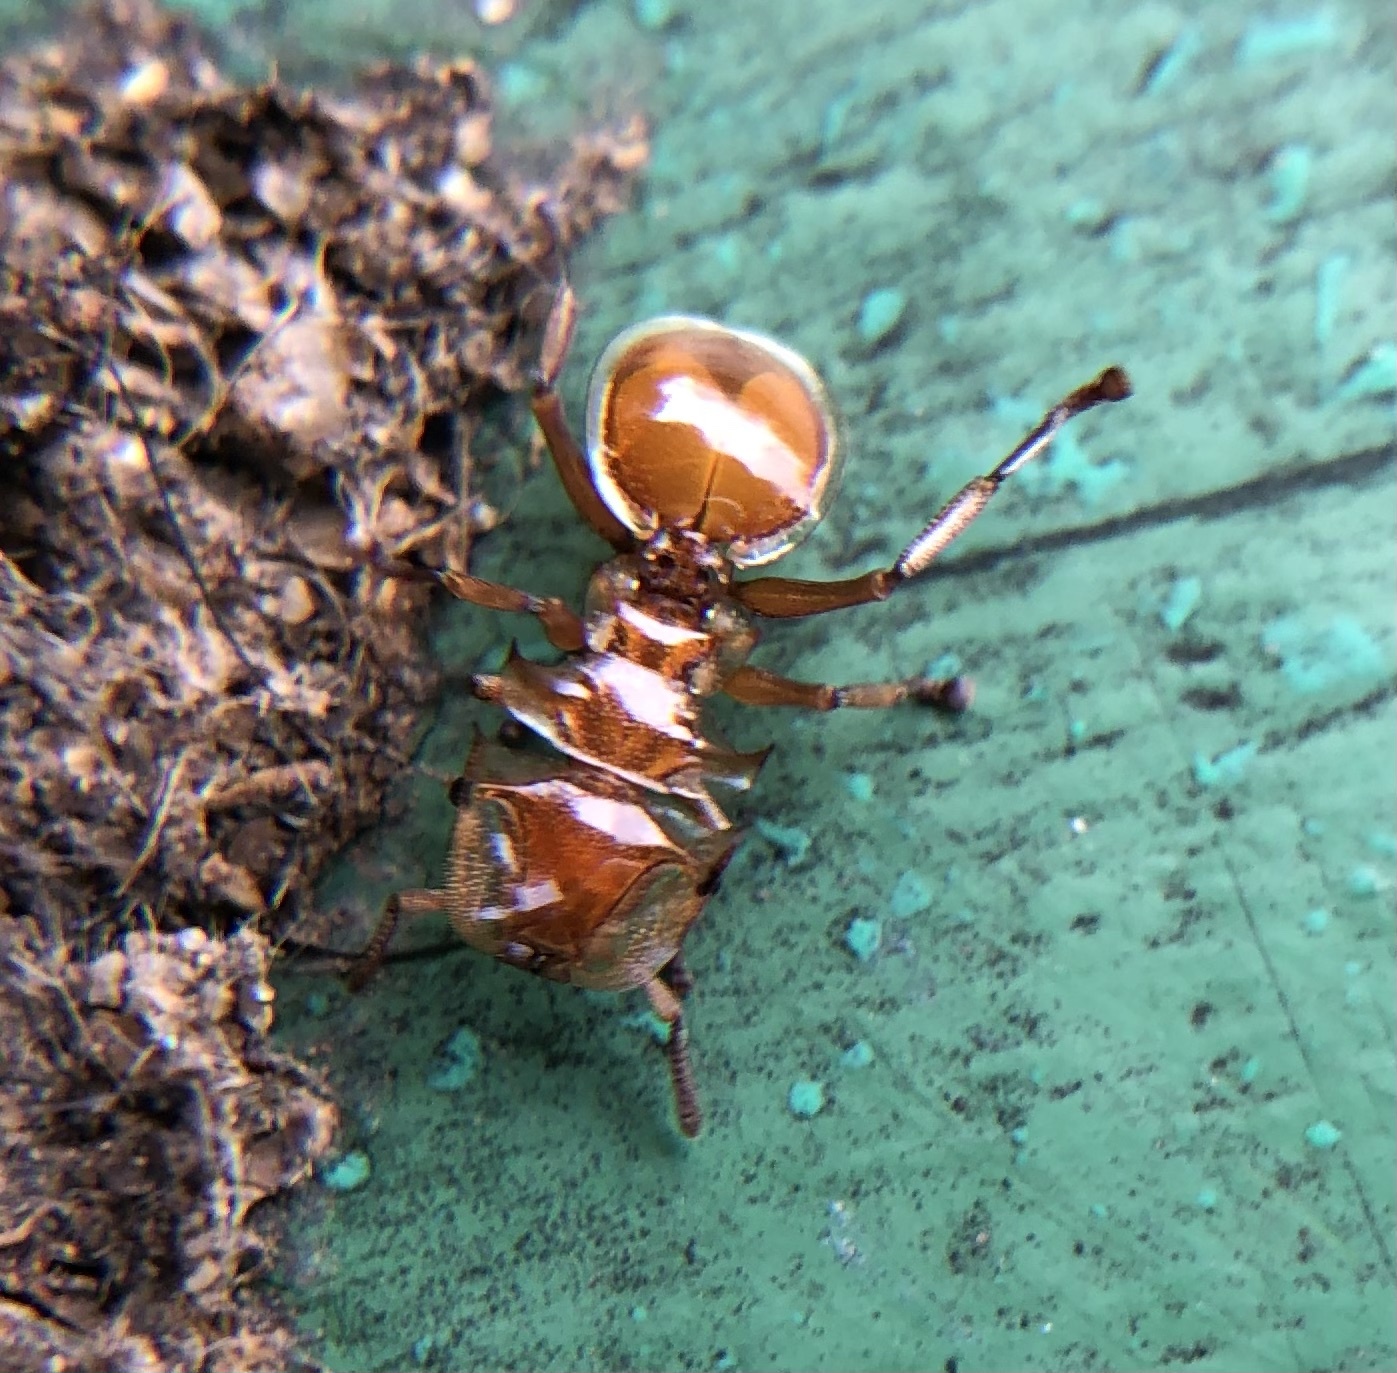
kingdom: Animalia
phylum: Arthropoda
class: Insecta
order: Hymenoptera
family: Formicidae
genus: Cephalotes
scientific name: Cephalotes clypeatus
